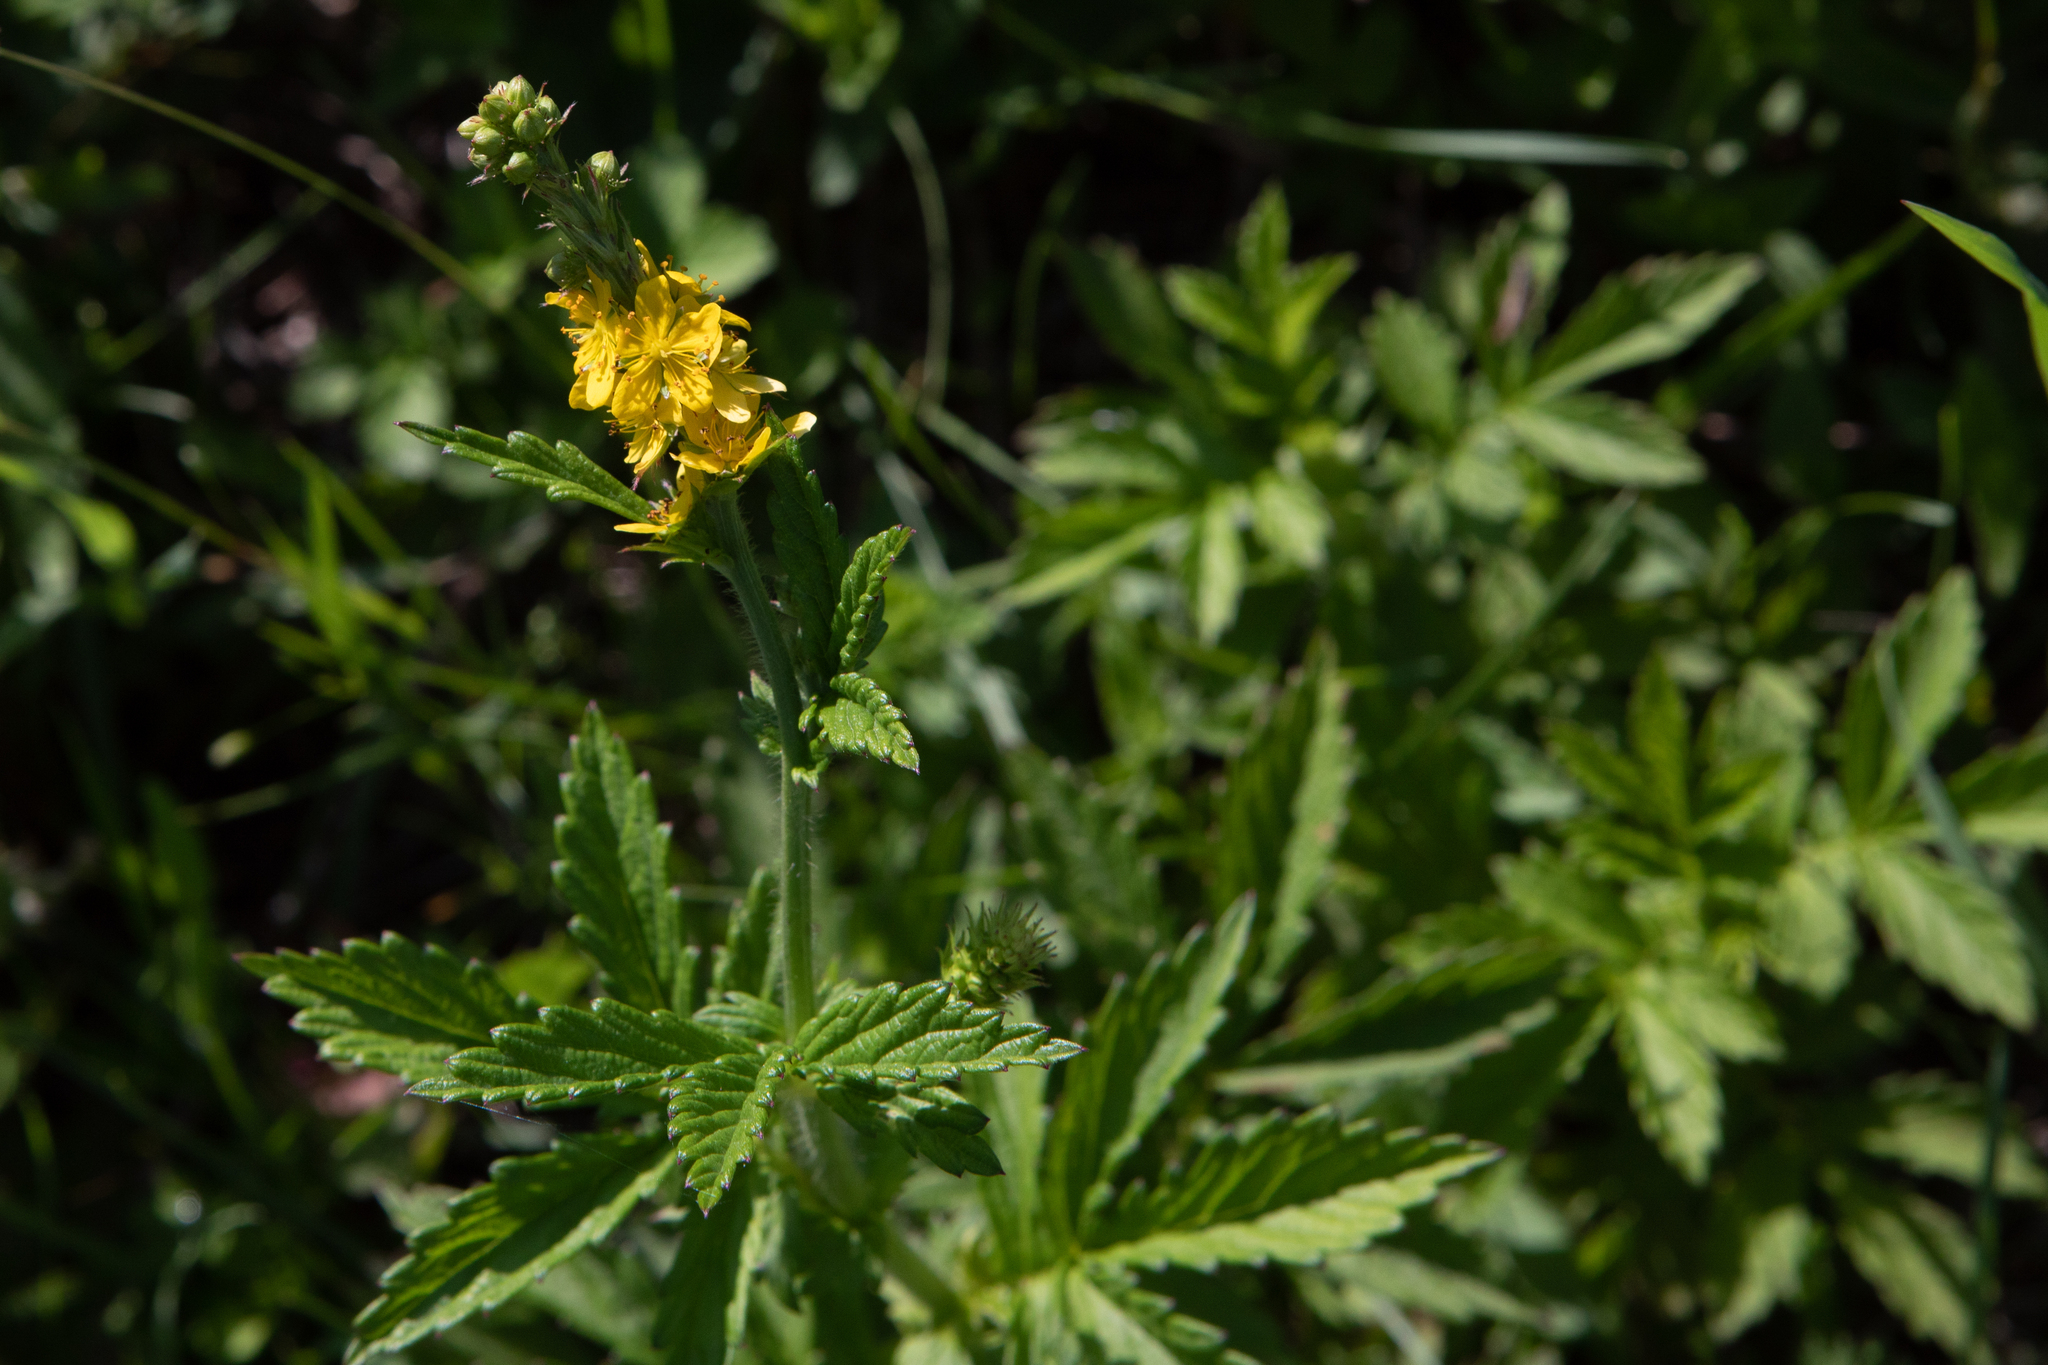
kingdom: Plantae
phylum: Tracheophyta
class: Magnoliopsida
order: Rosales
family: Rosaceae
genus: Agrimonia
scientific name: Agrimonia pilosa
